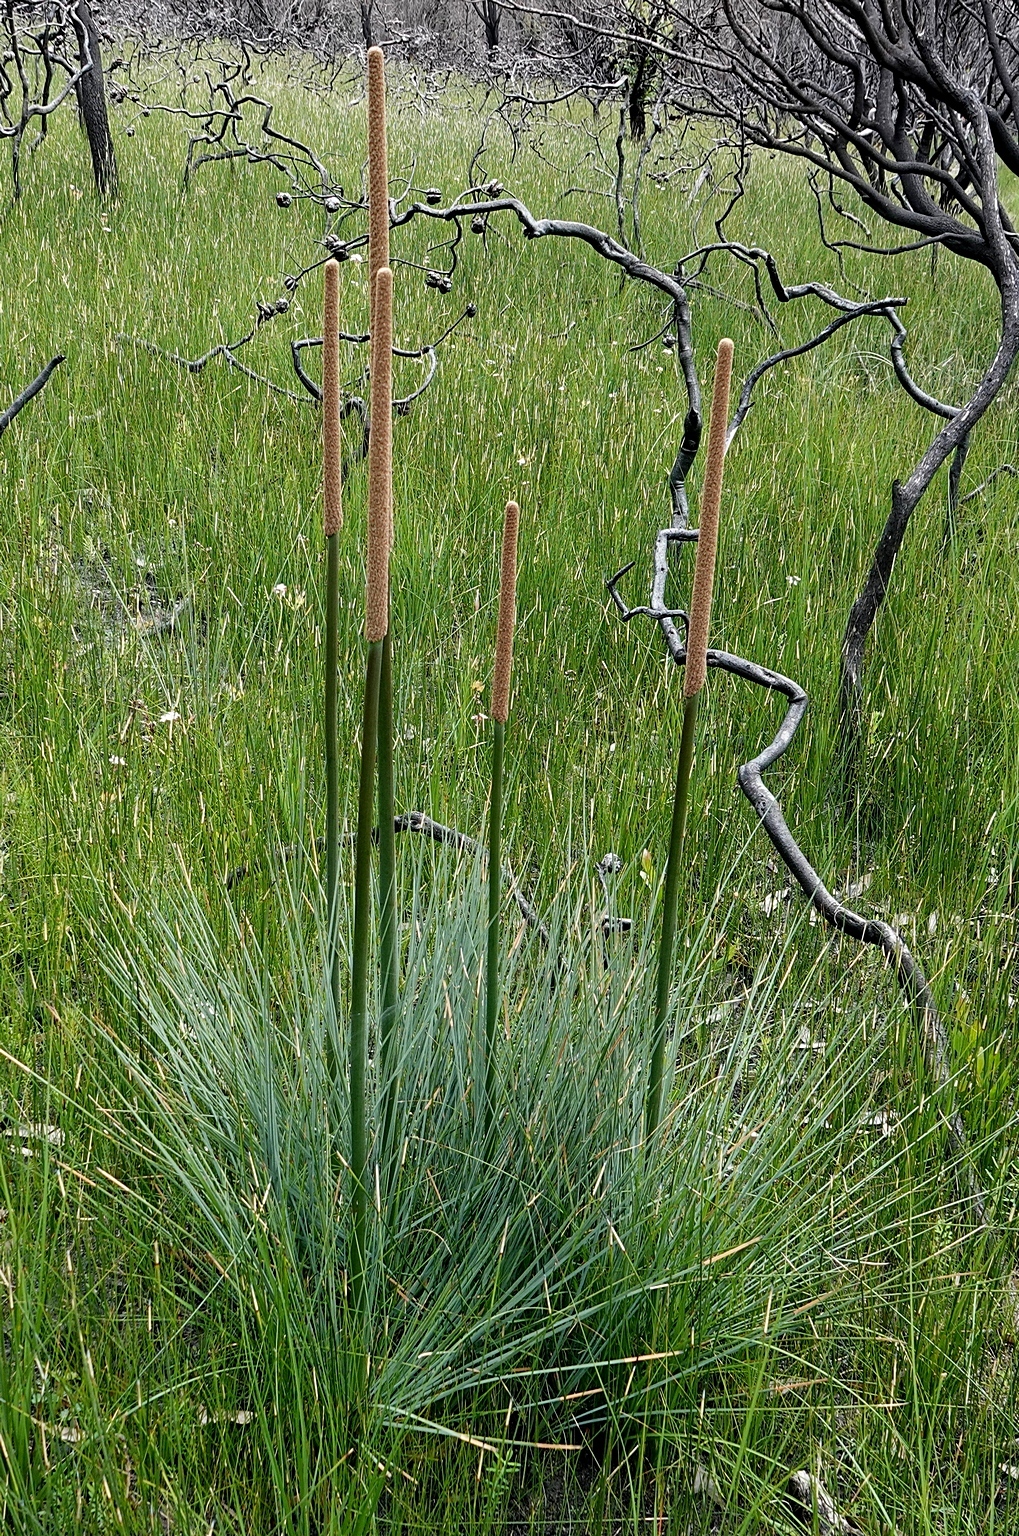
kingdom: Plantae
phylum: Tracheophyta
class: Liliopsida
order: Asparagales
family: Asphodelaceae
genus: Xanthorrhoea
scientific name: Xanthorrhoea concava
